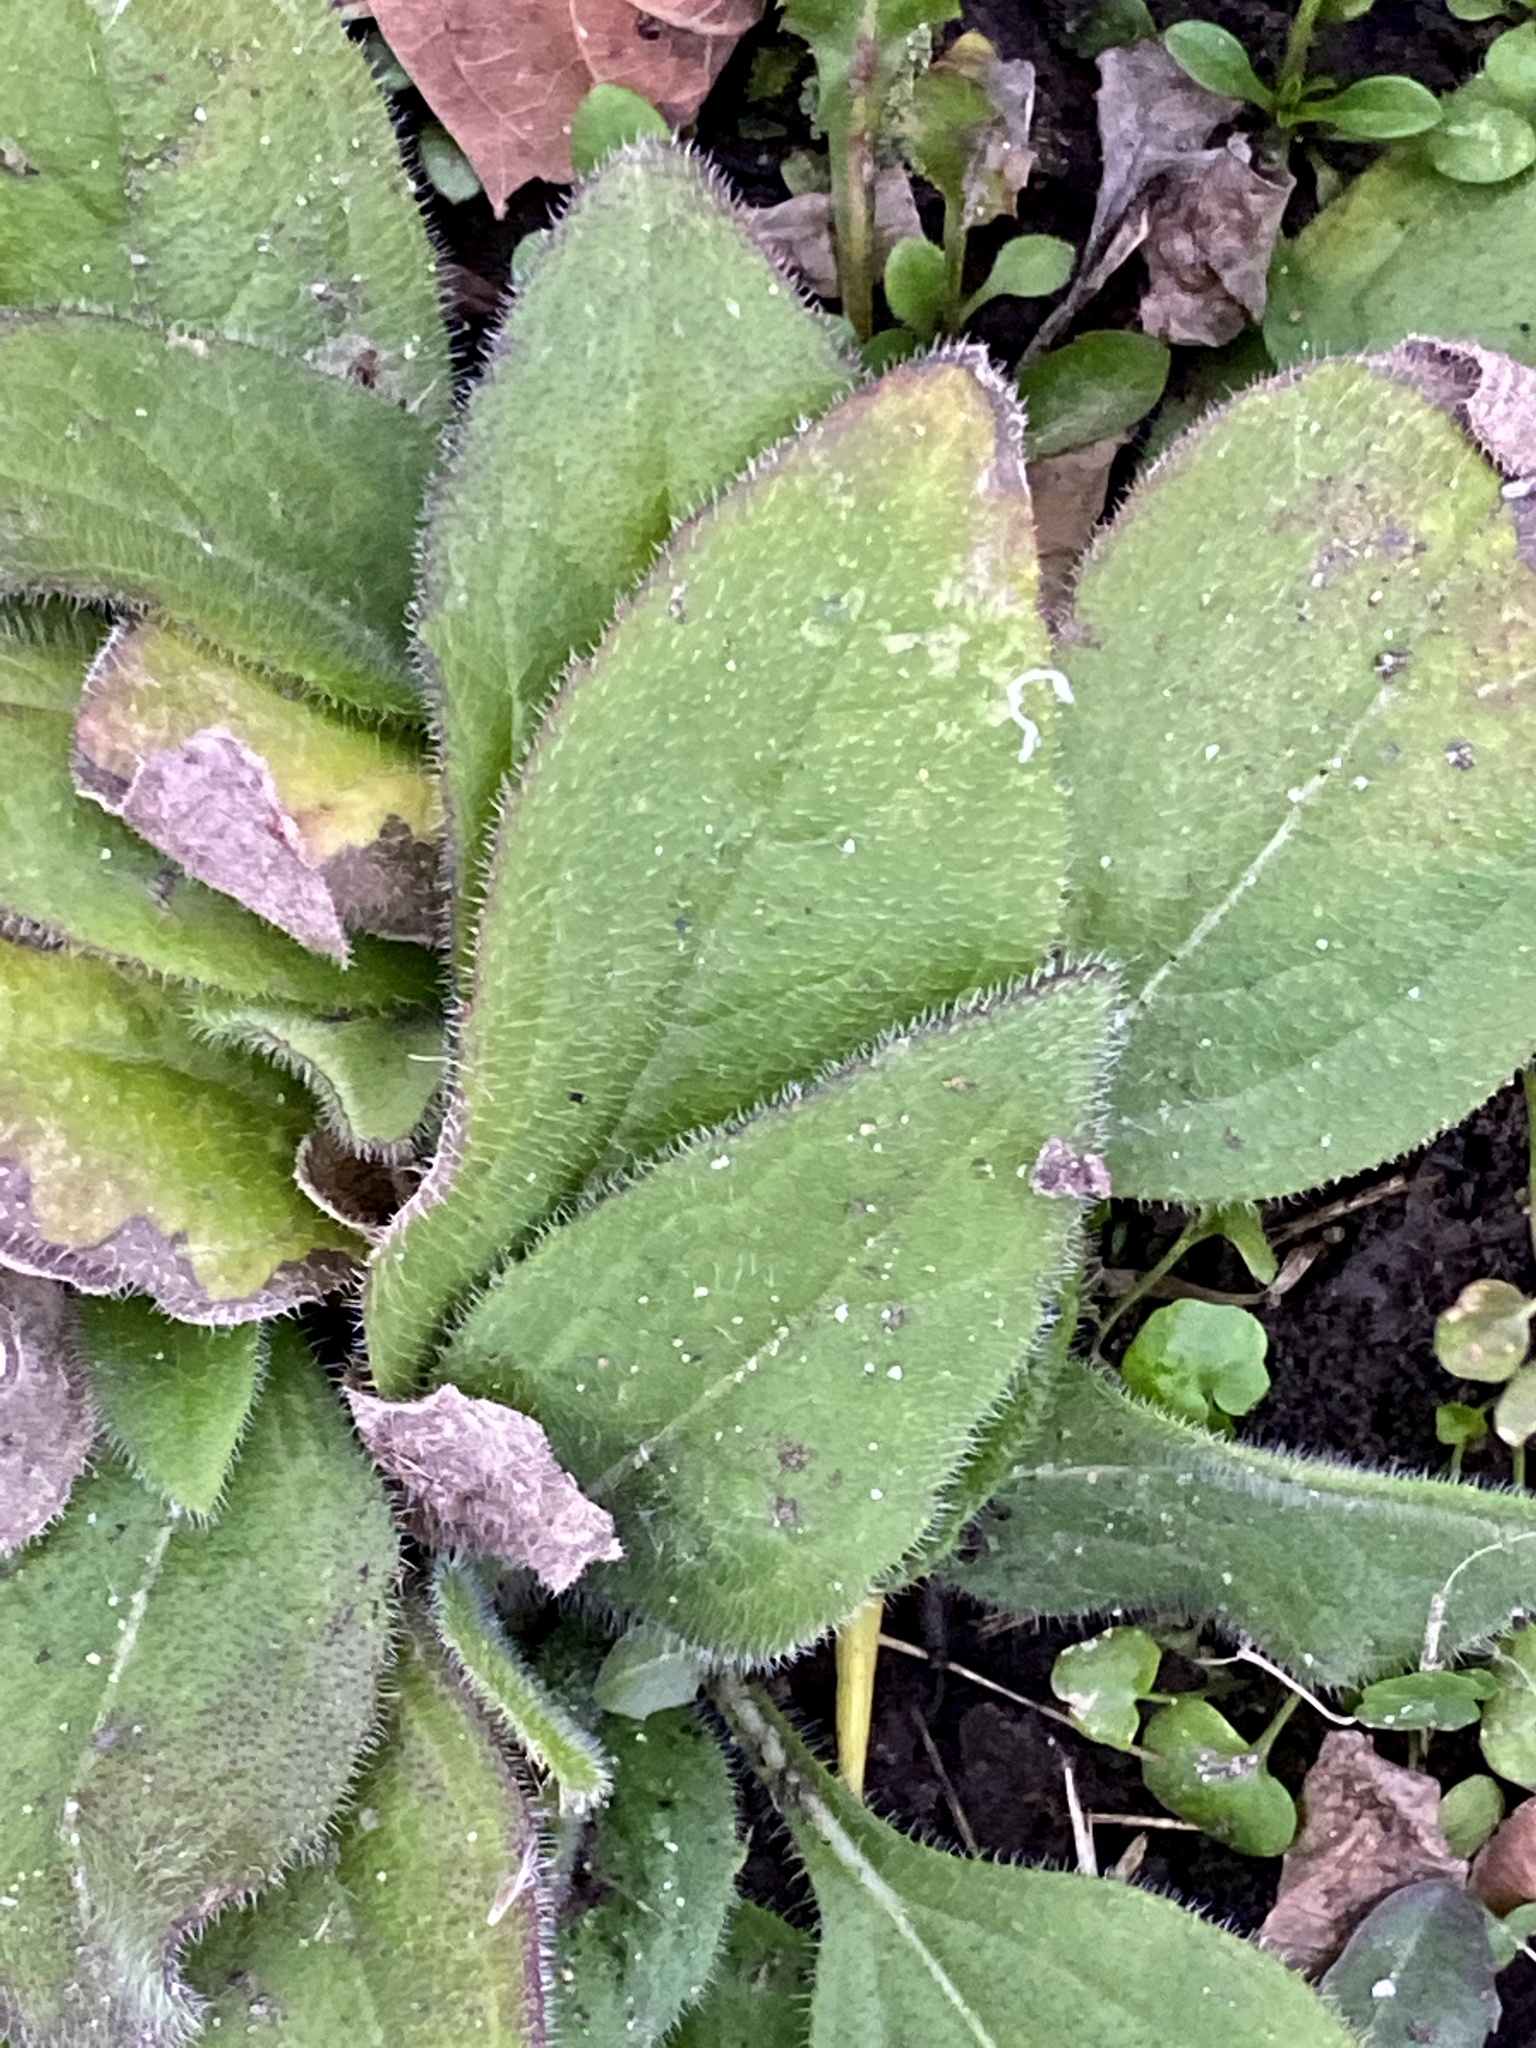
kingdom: Plantae
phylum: Tracheophyta
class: Magnoliopsida
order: Asterales
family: Asteraceae
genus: Rudbeckia
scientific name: Rudbeckia hirta
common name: Black-eyed-susan
